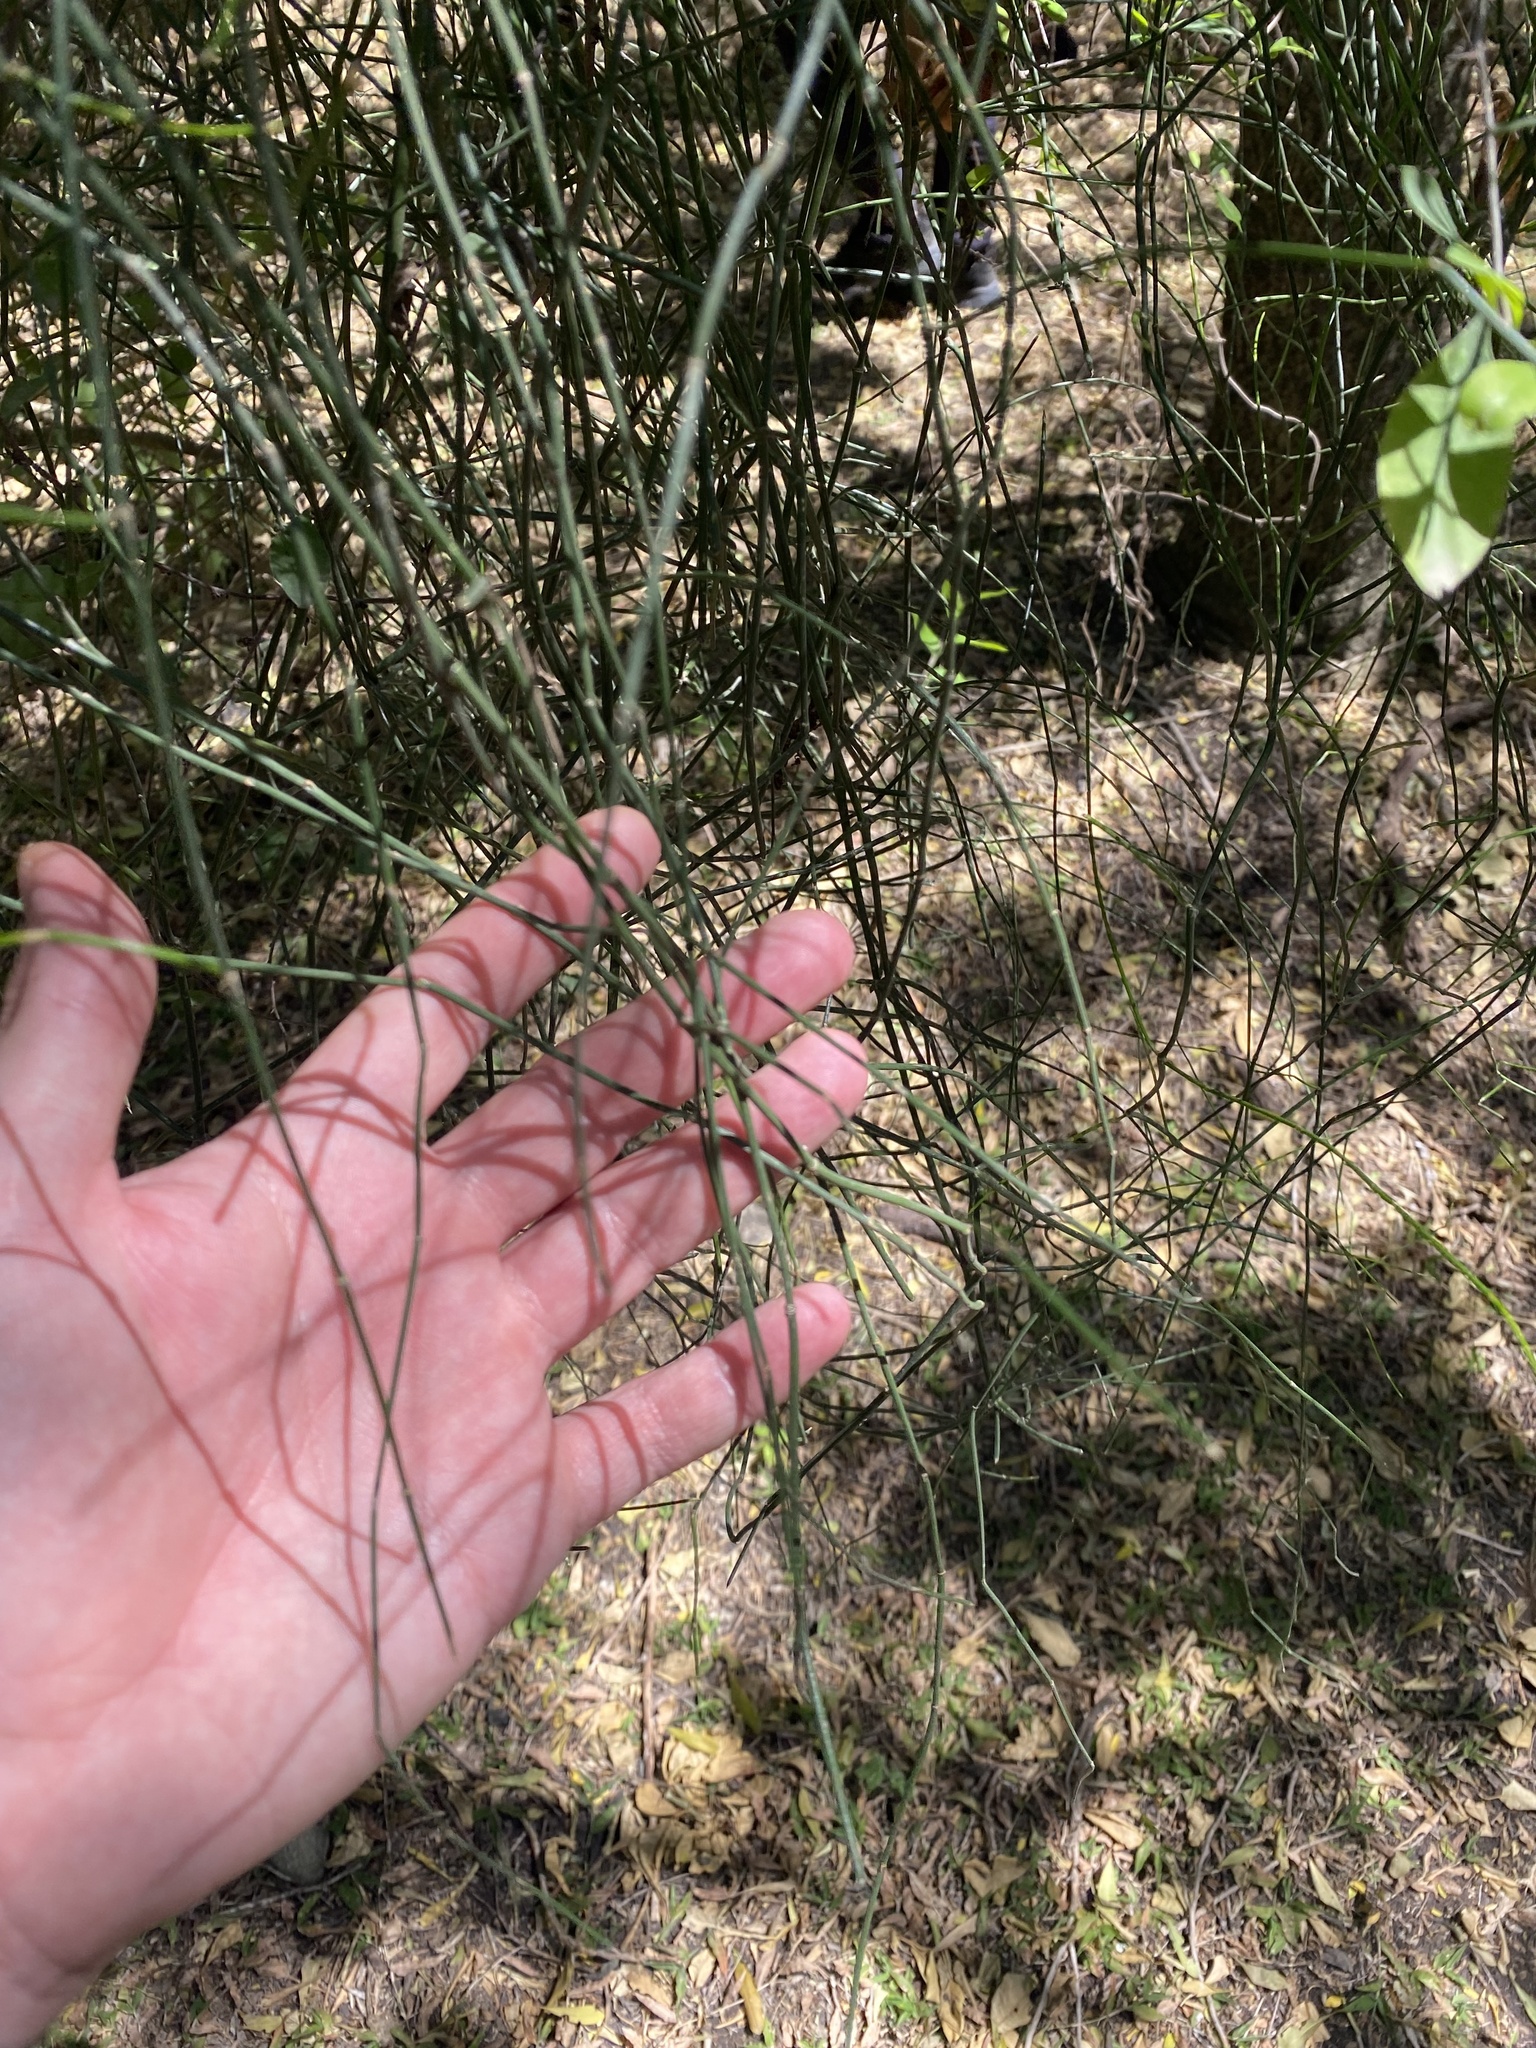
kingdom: Plantae
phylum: Tracheophyta
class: Gnetopsida
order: Ephedrales
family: Ephedraceae
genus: Ephedra
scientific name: Ephedra tweedieana
